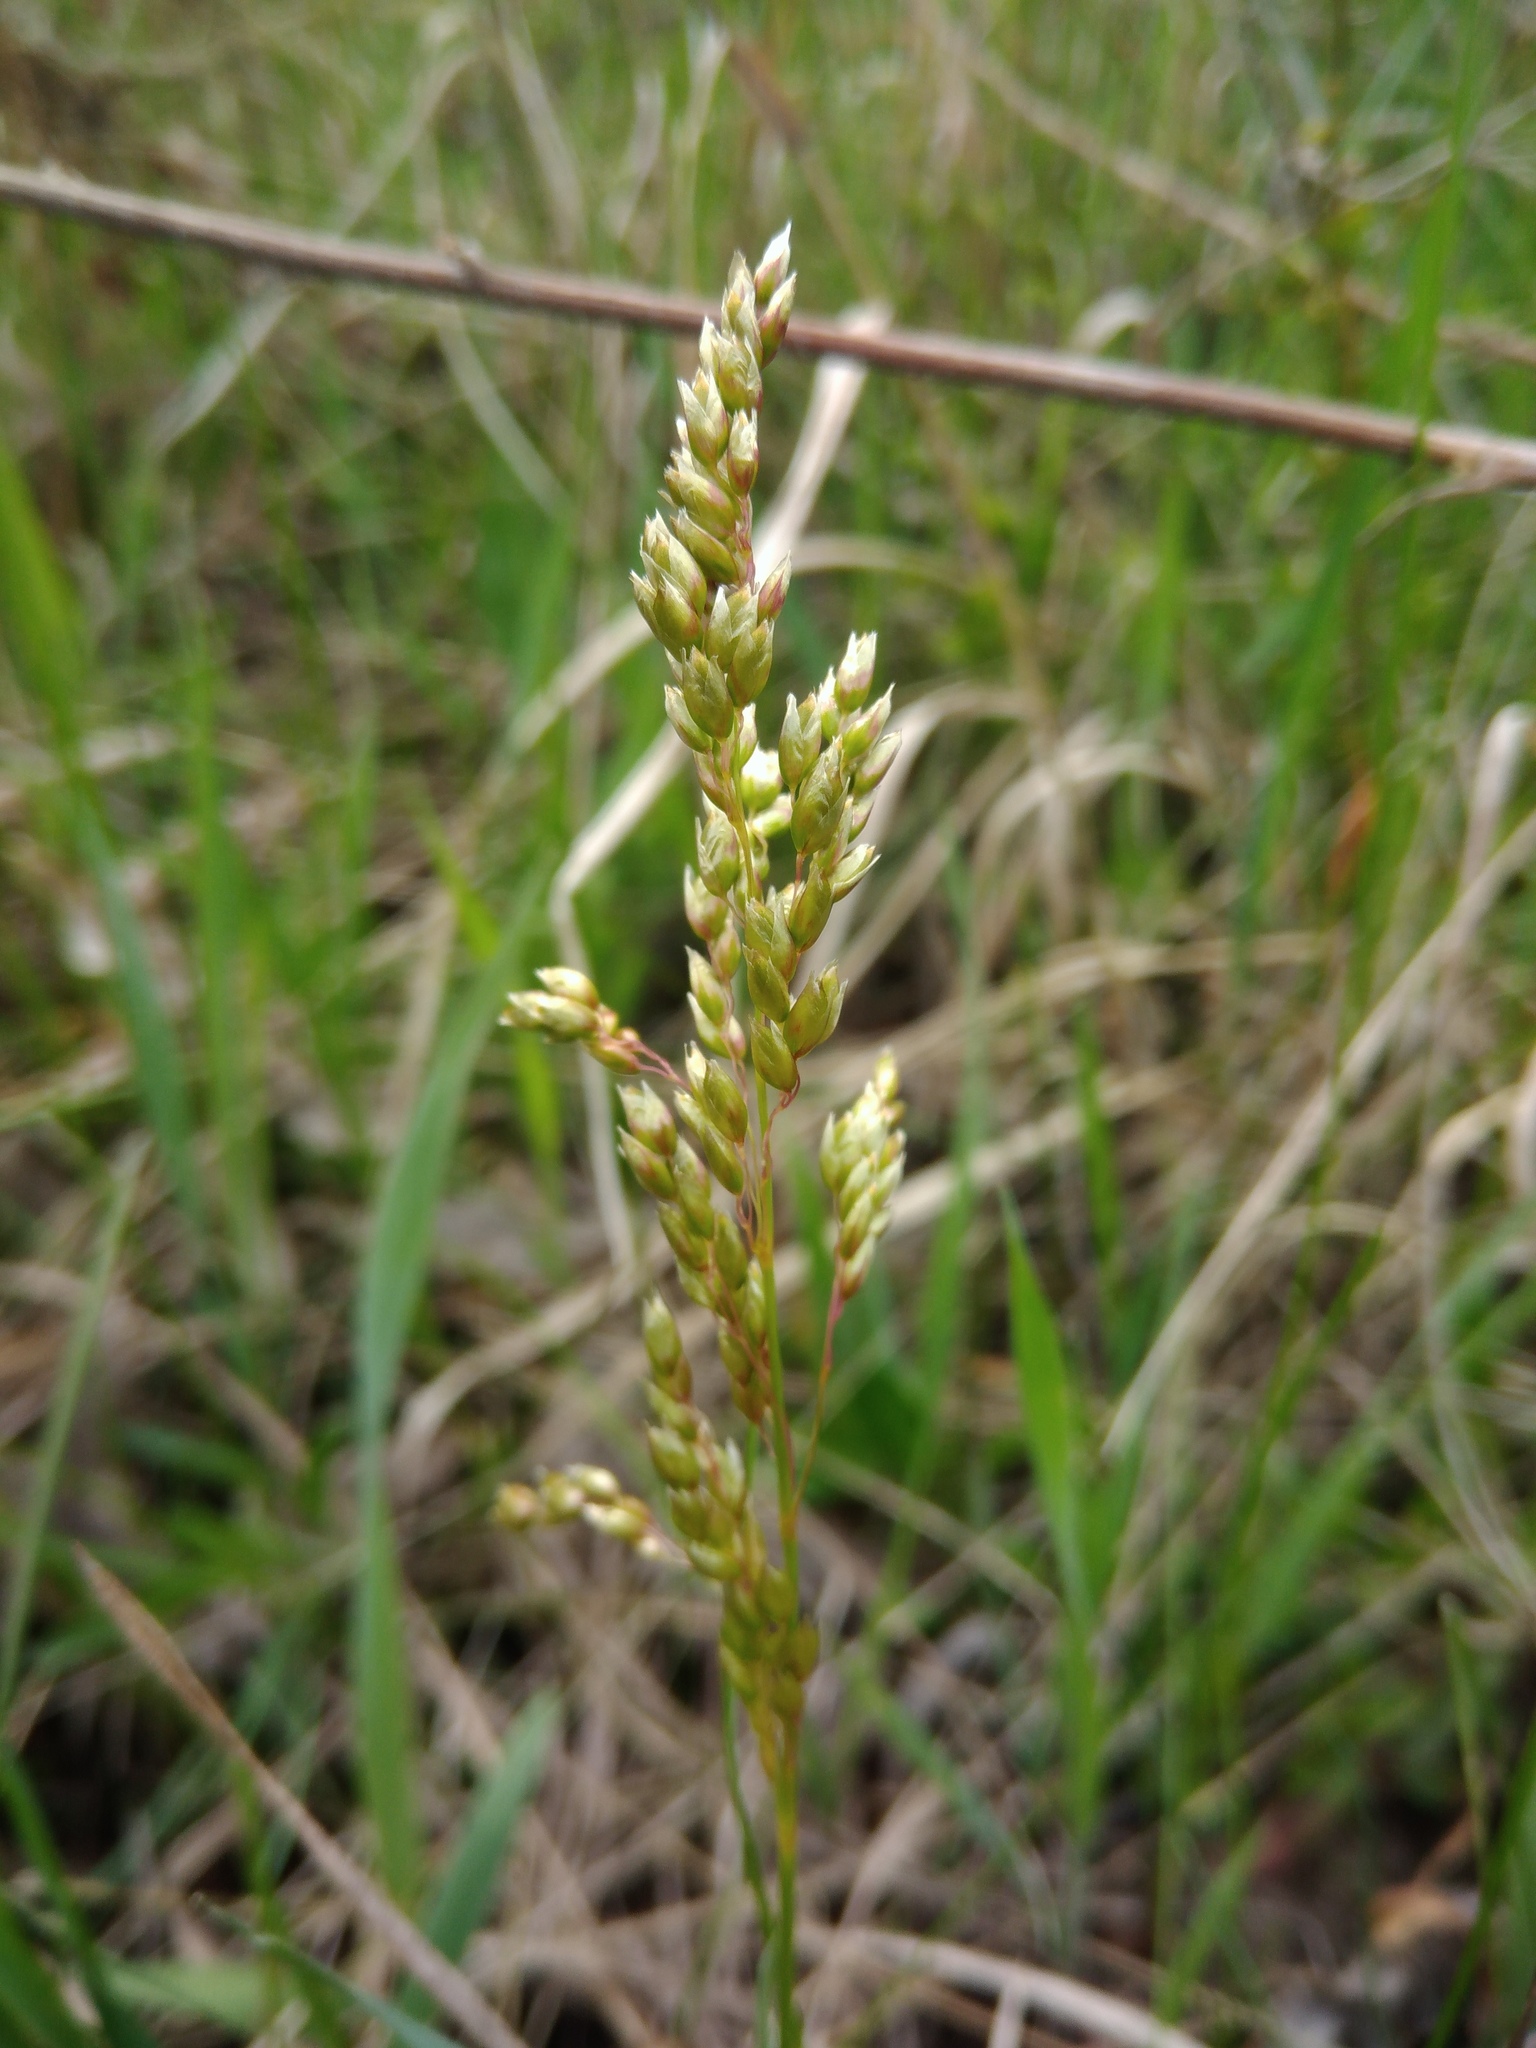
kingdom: Plantae
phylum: Tracheophyta
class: Liliopsida
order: Poales
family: Poaceae
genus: Anthoxanthum
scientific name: Anthoxanthum repens
